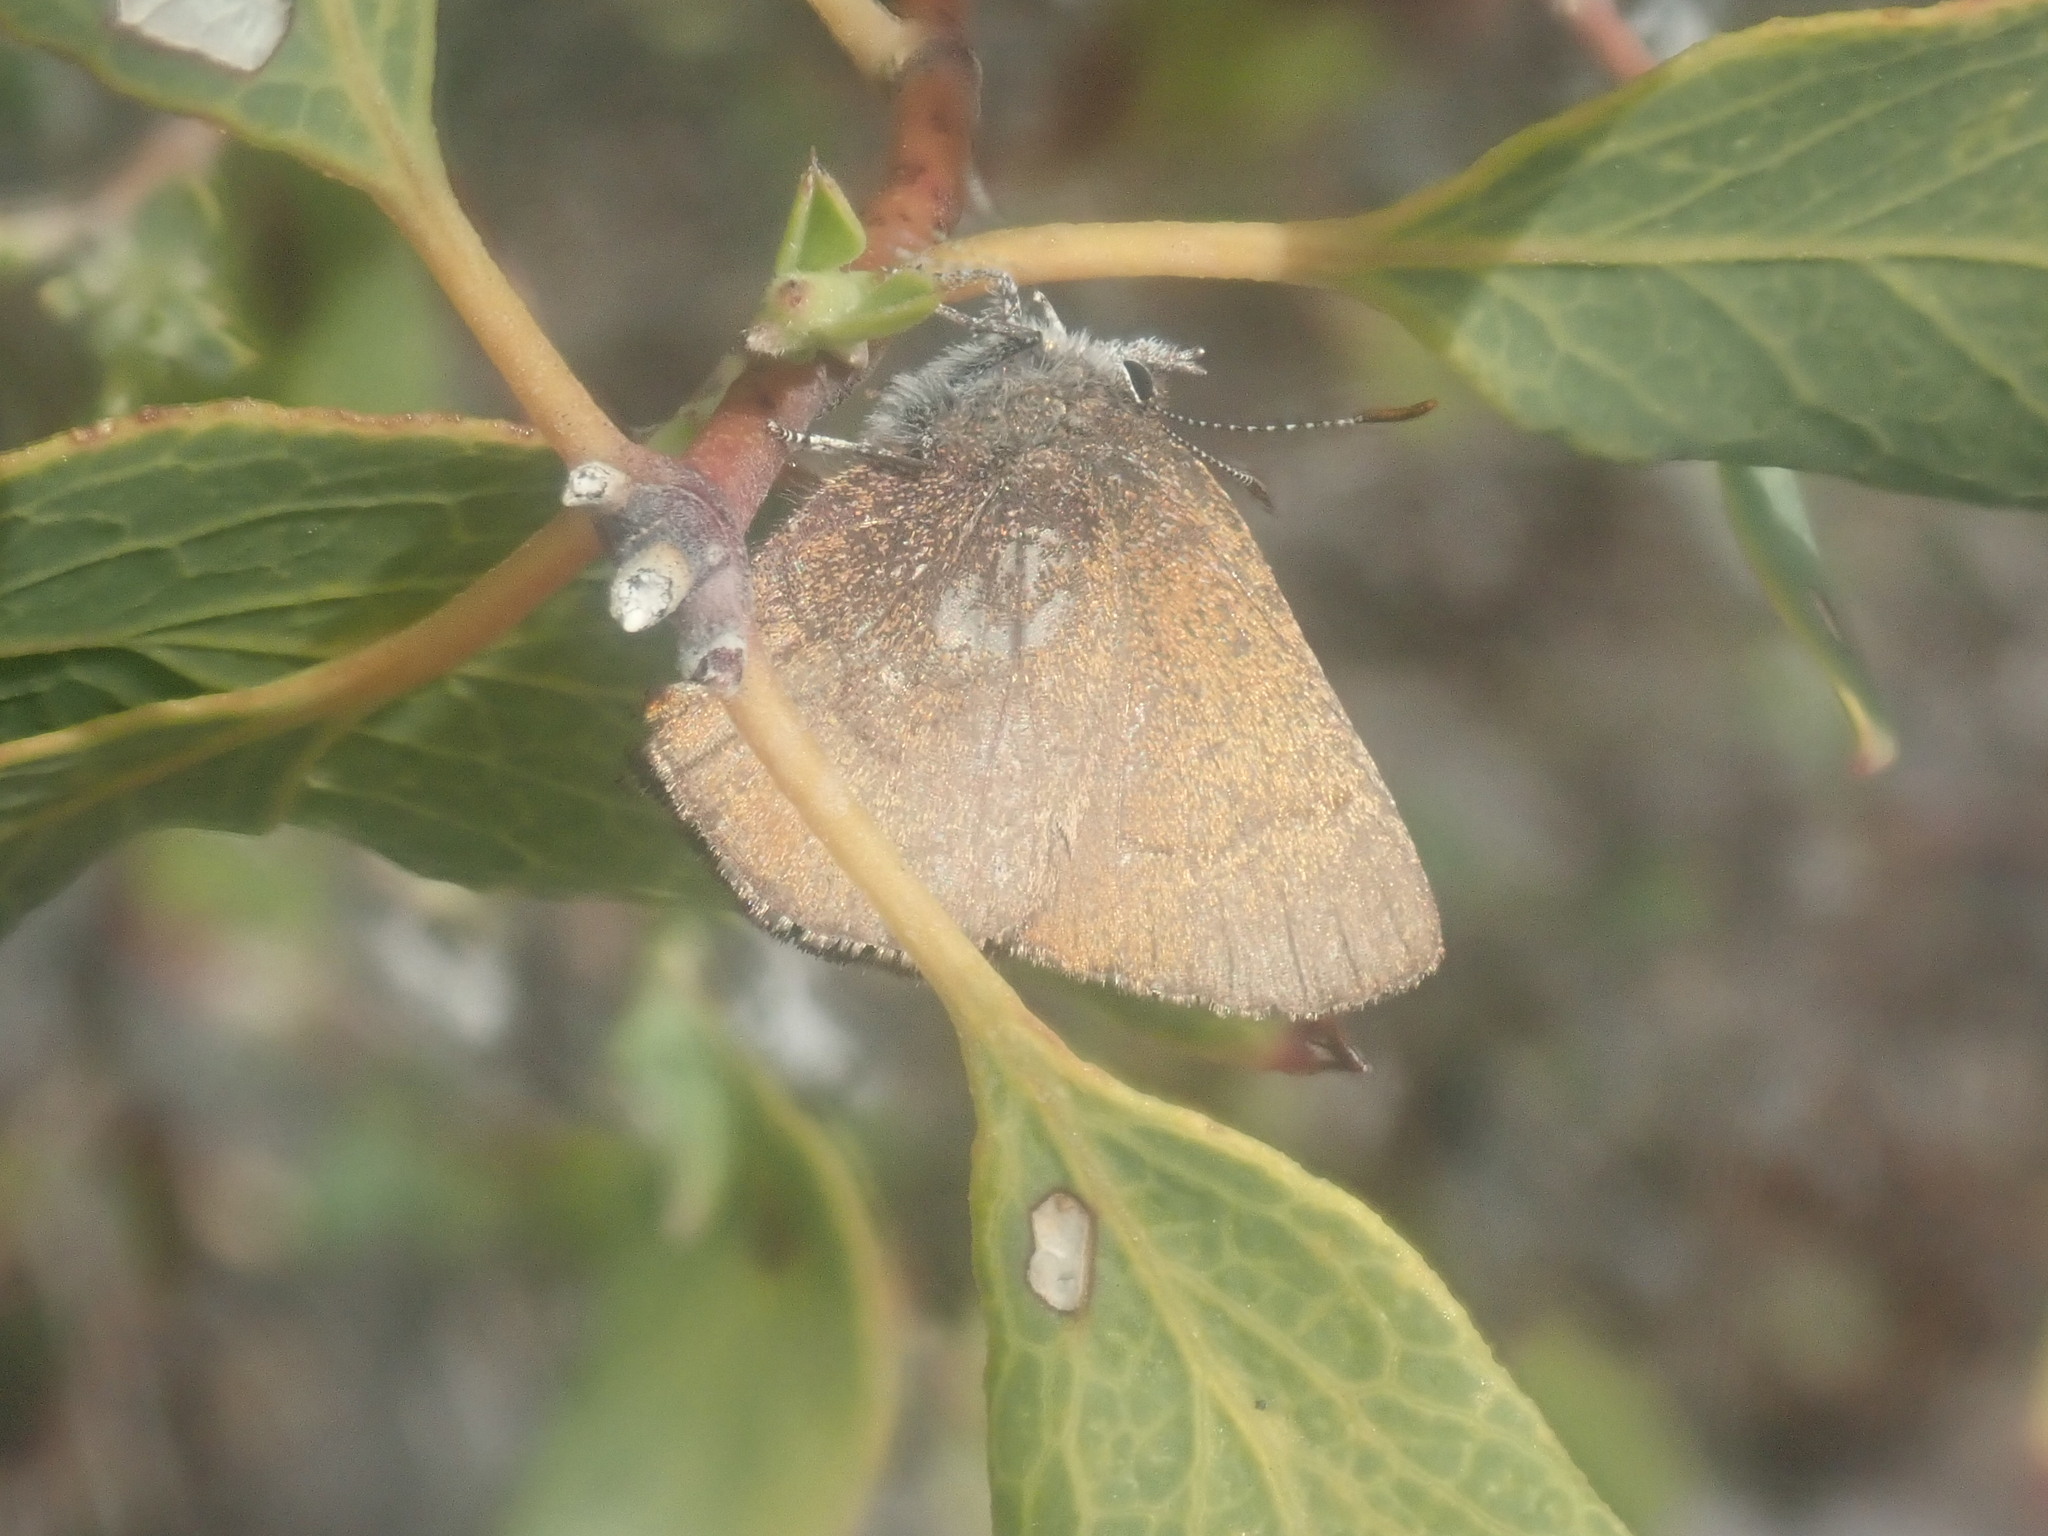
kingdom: Animalia
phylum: Arthropoda
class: Insecta
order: Lepidoptera
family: Lycaenidae
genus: Incisalia
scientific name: Incisalia irioides
